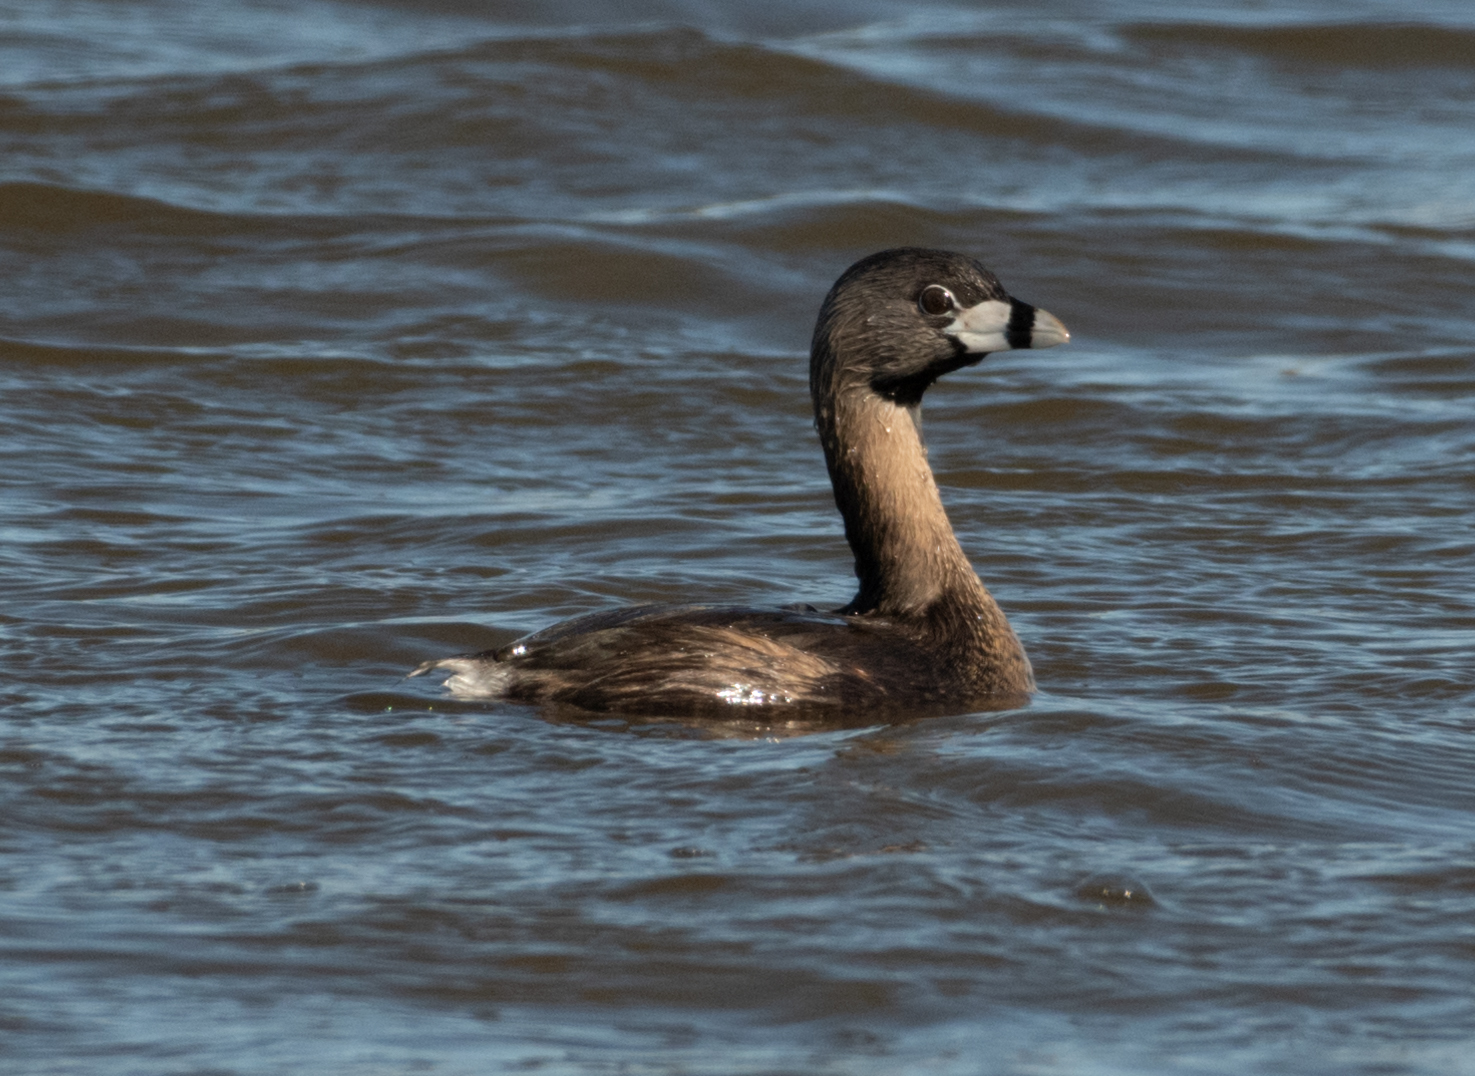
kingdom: Animalia
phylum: Chordata
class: Aves
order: Podicipediformes
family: Podicipedidae
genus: Podilymbus
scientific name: Podilymbus podiceps
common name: Pied-billed grebe
